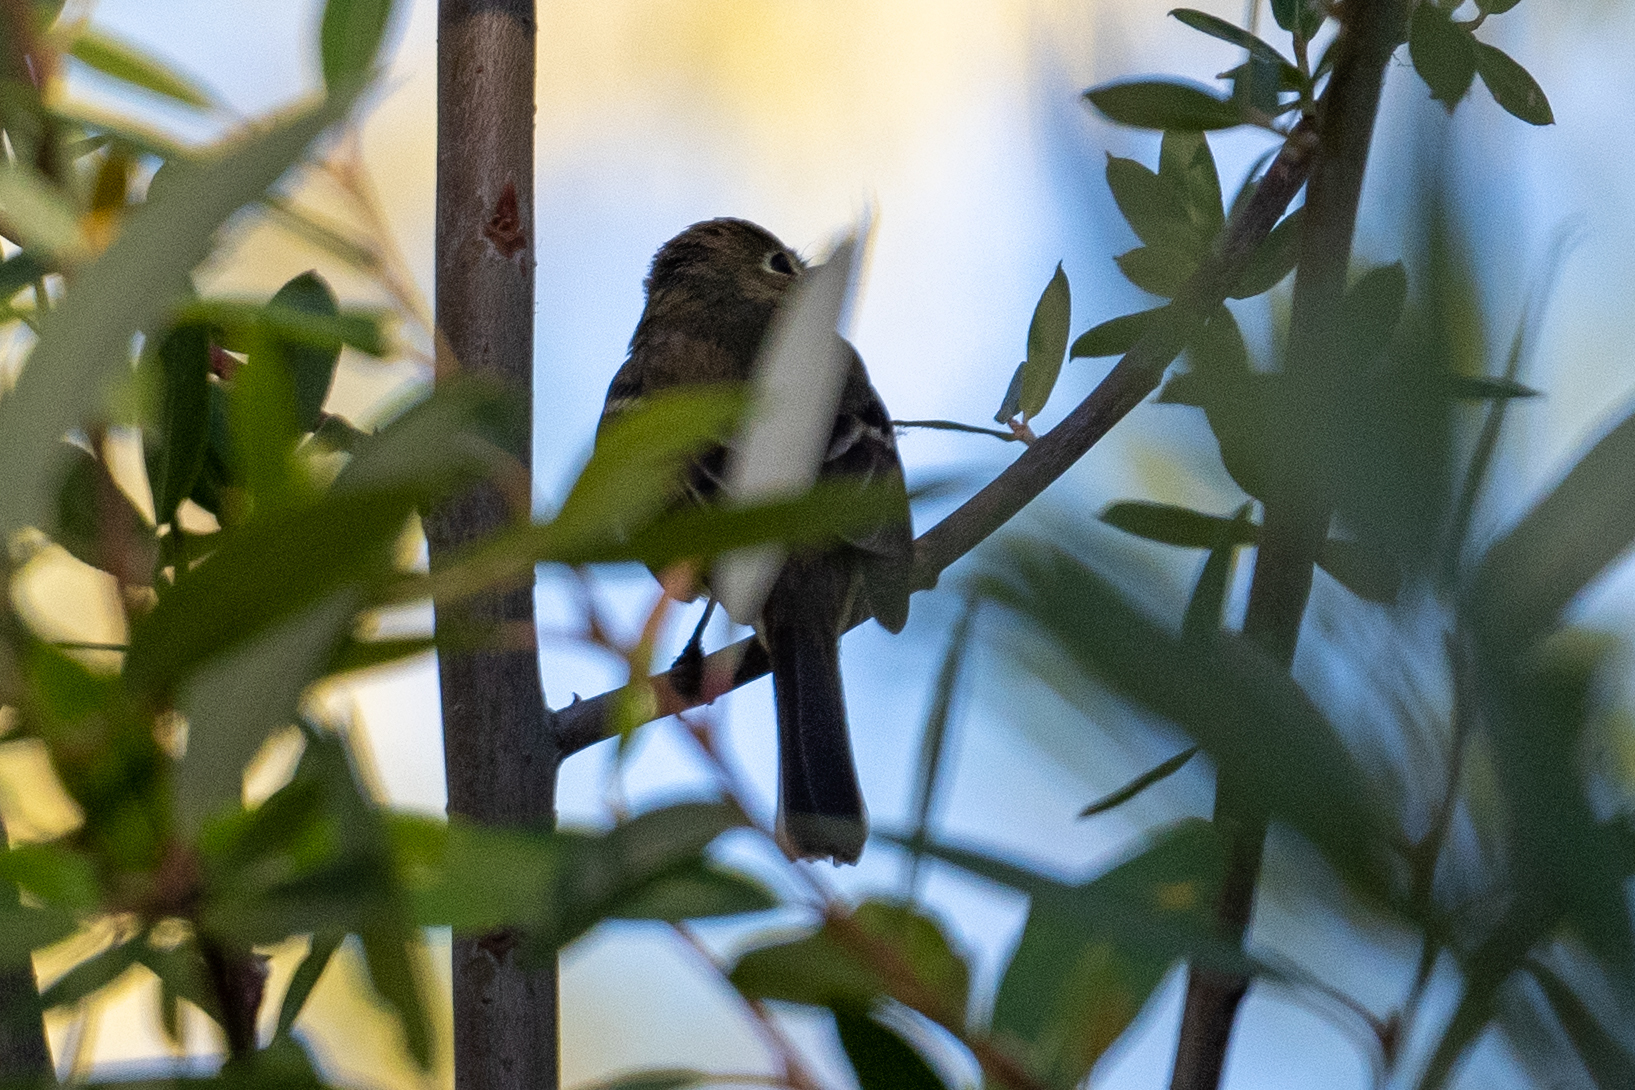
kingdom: Animalia
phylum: Chordata
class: Aves
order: Passeriformes
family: Tyrannidae
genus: Empidonax
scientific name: Empidonax difficilis
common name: Pacific-slope flycatcher
